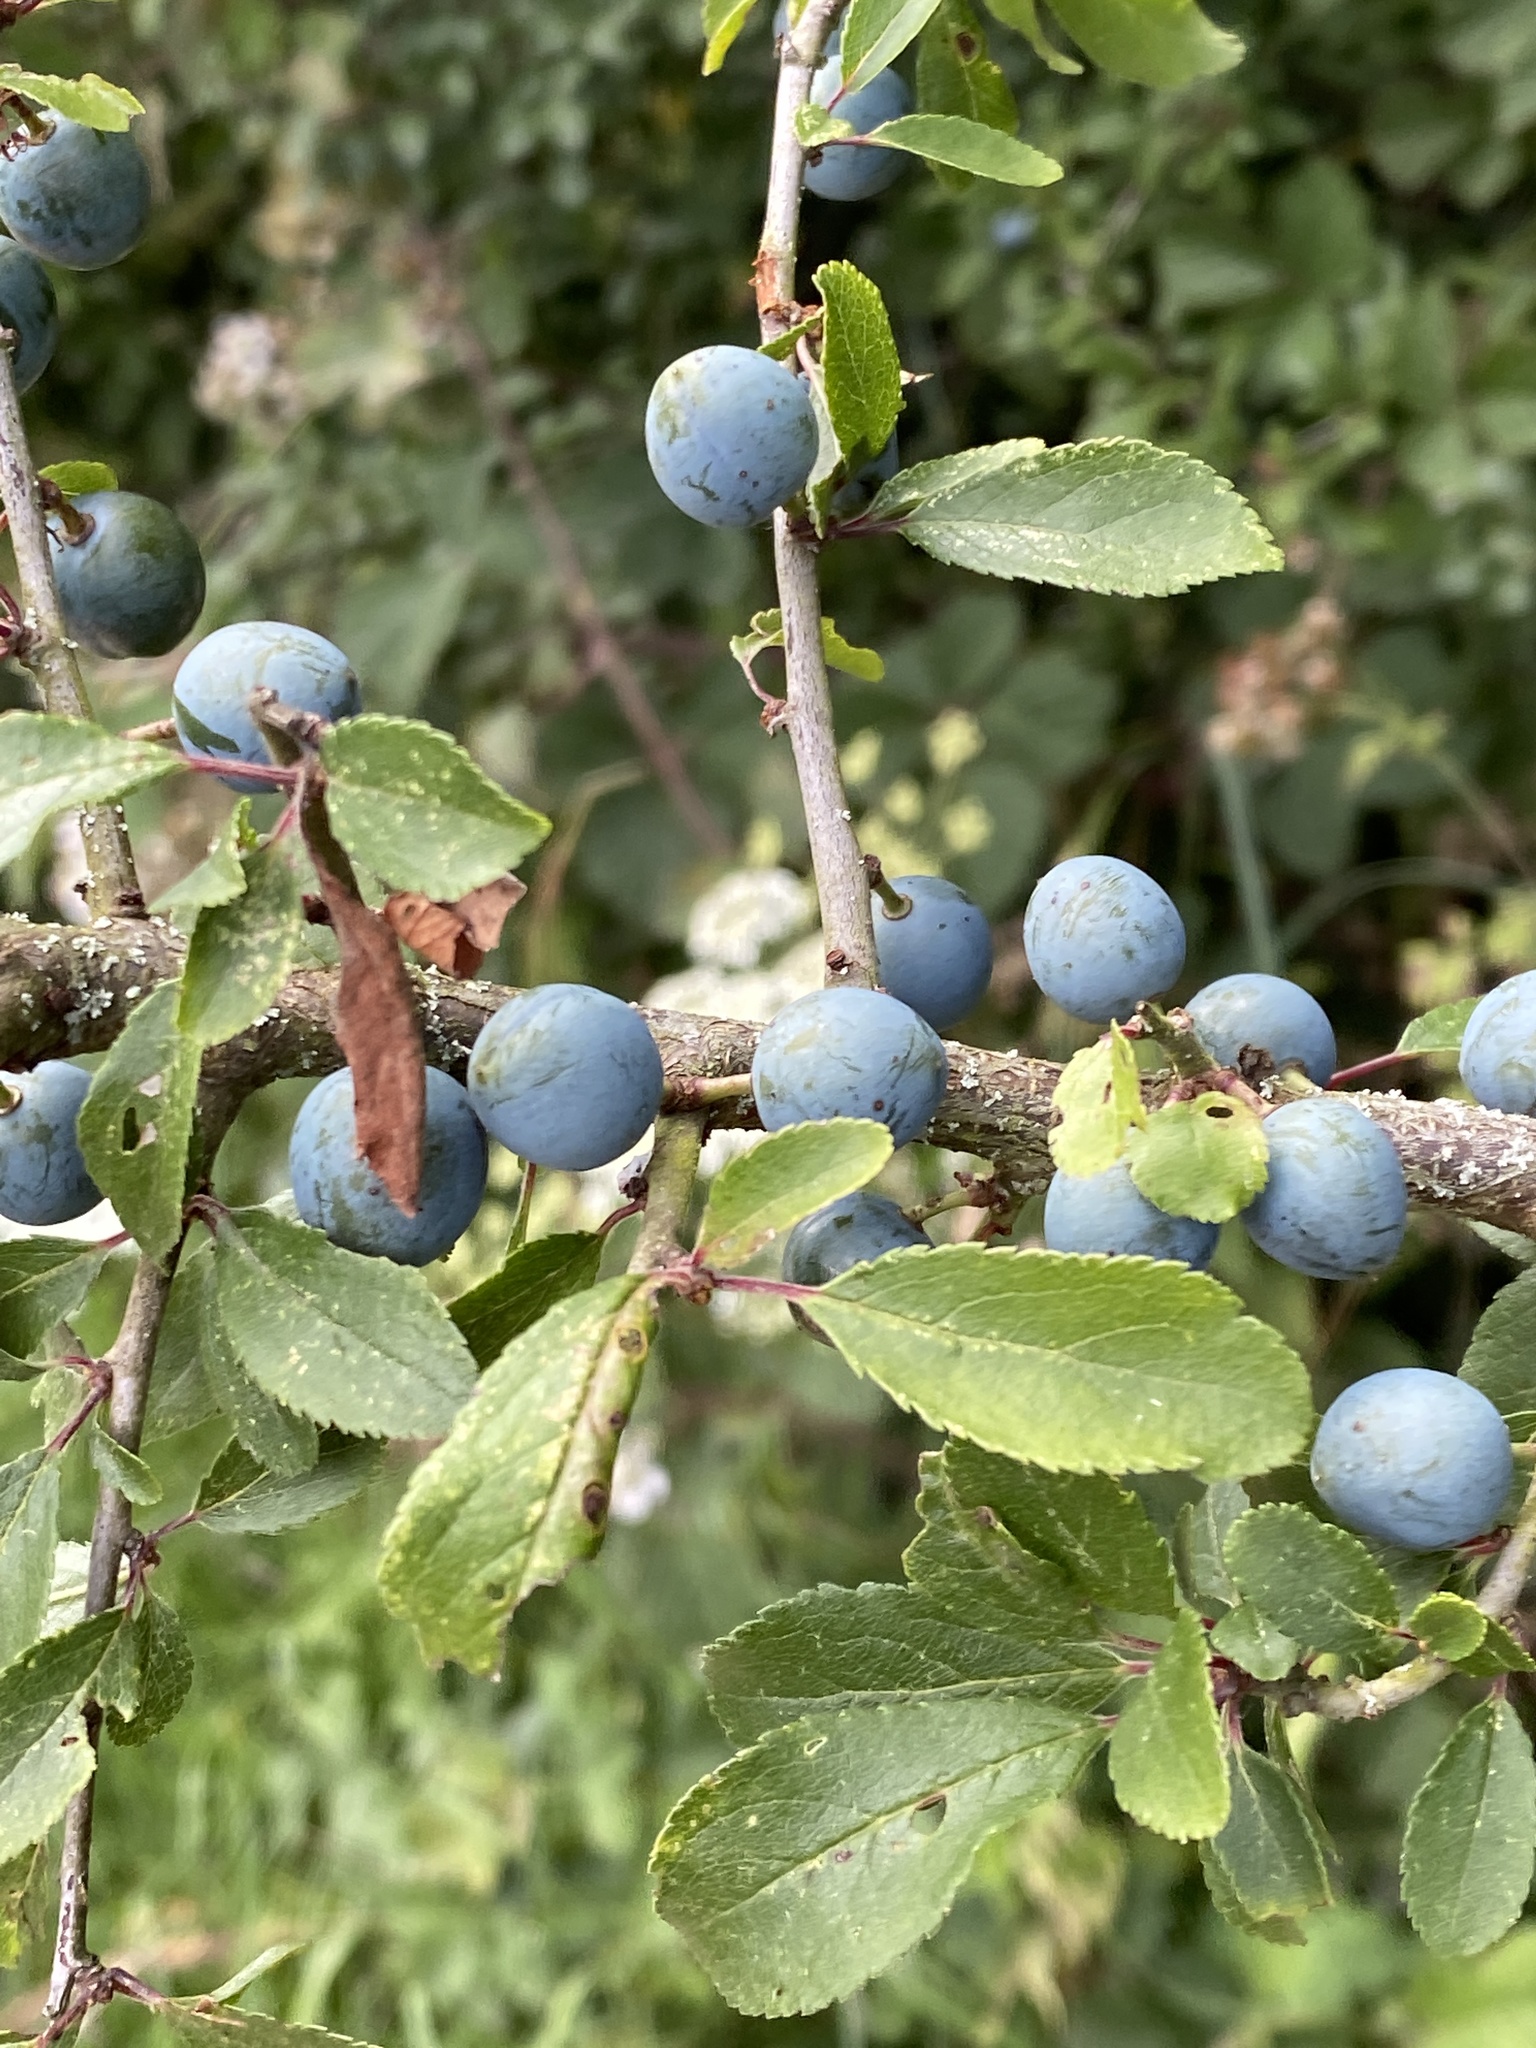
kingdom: Plantae
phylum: Tracheophyta
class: Magnoliopsida
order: Rosales
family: Rosaceae
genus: Prunus
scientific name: Prunus spinosa
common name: Blackthorn
